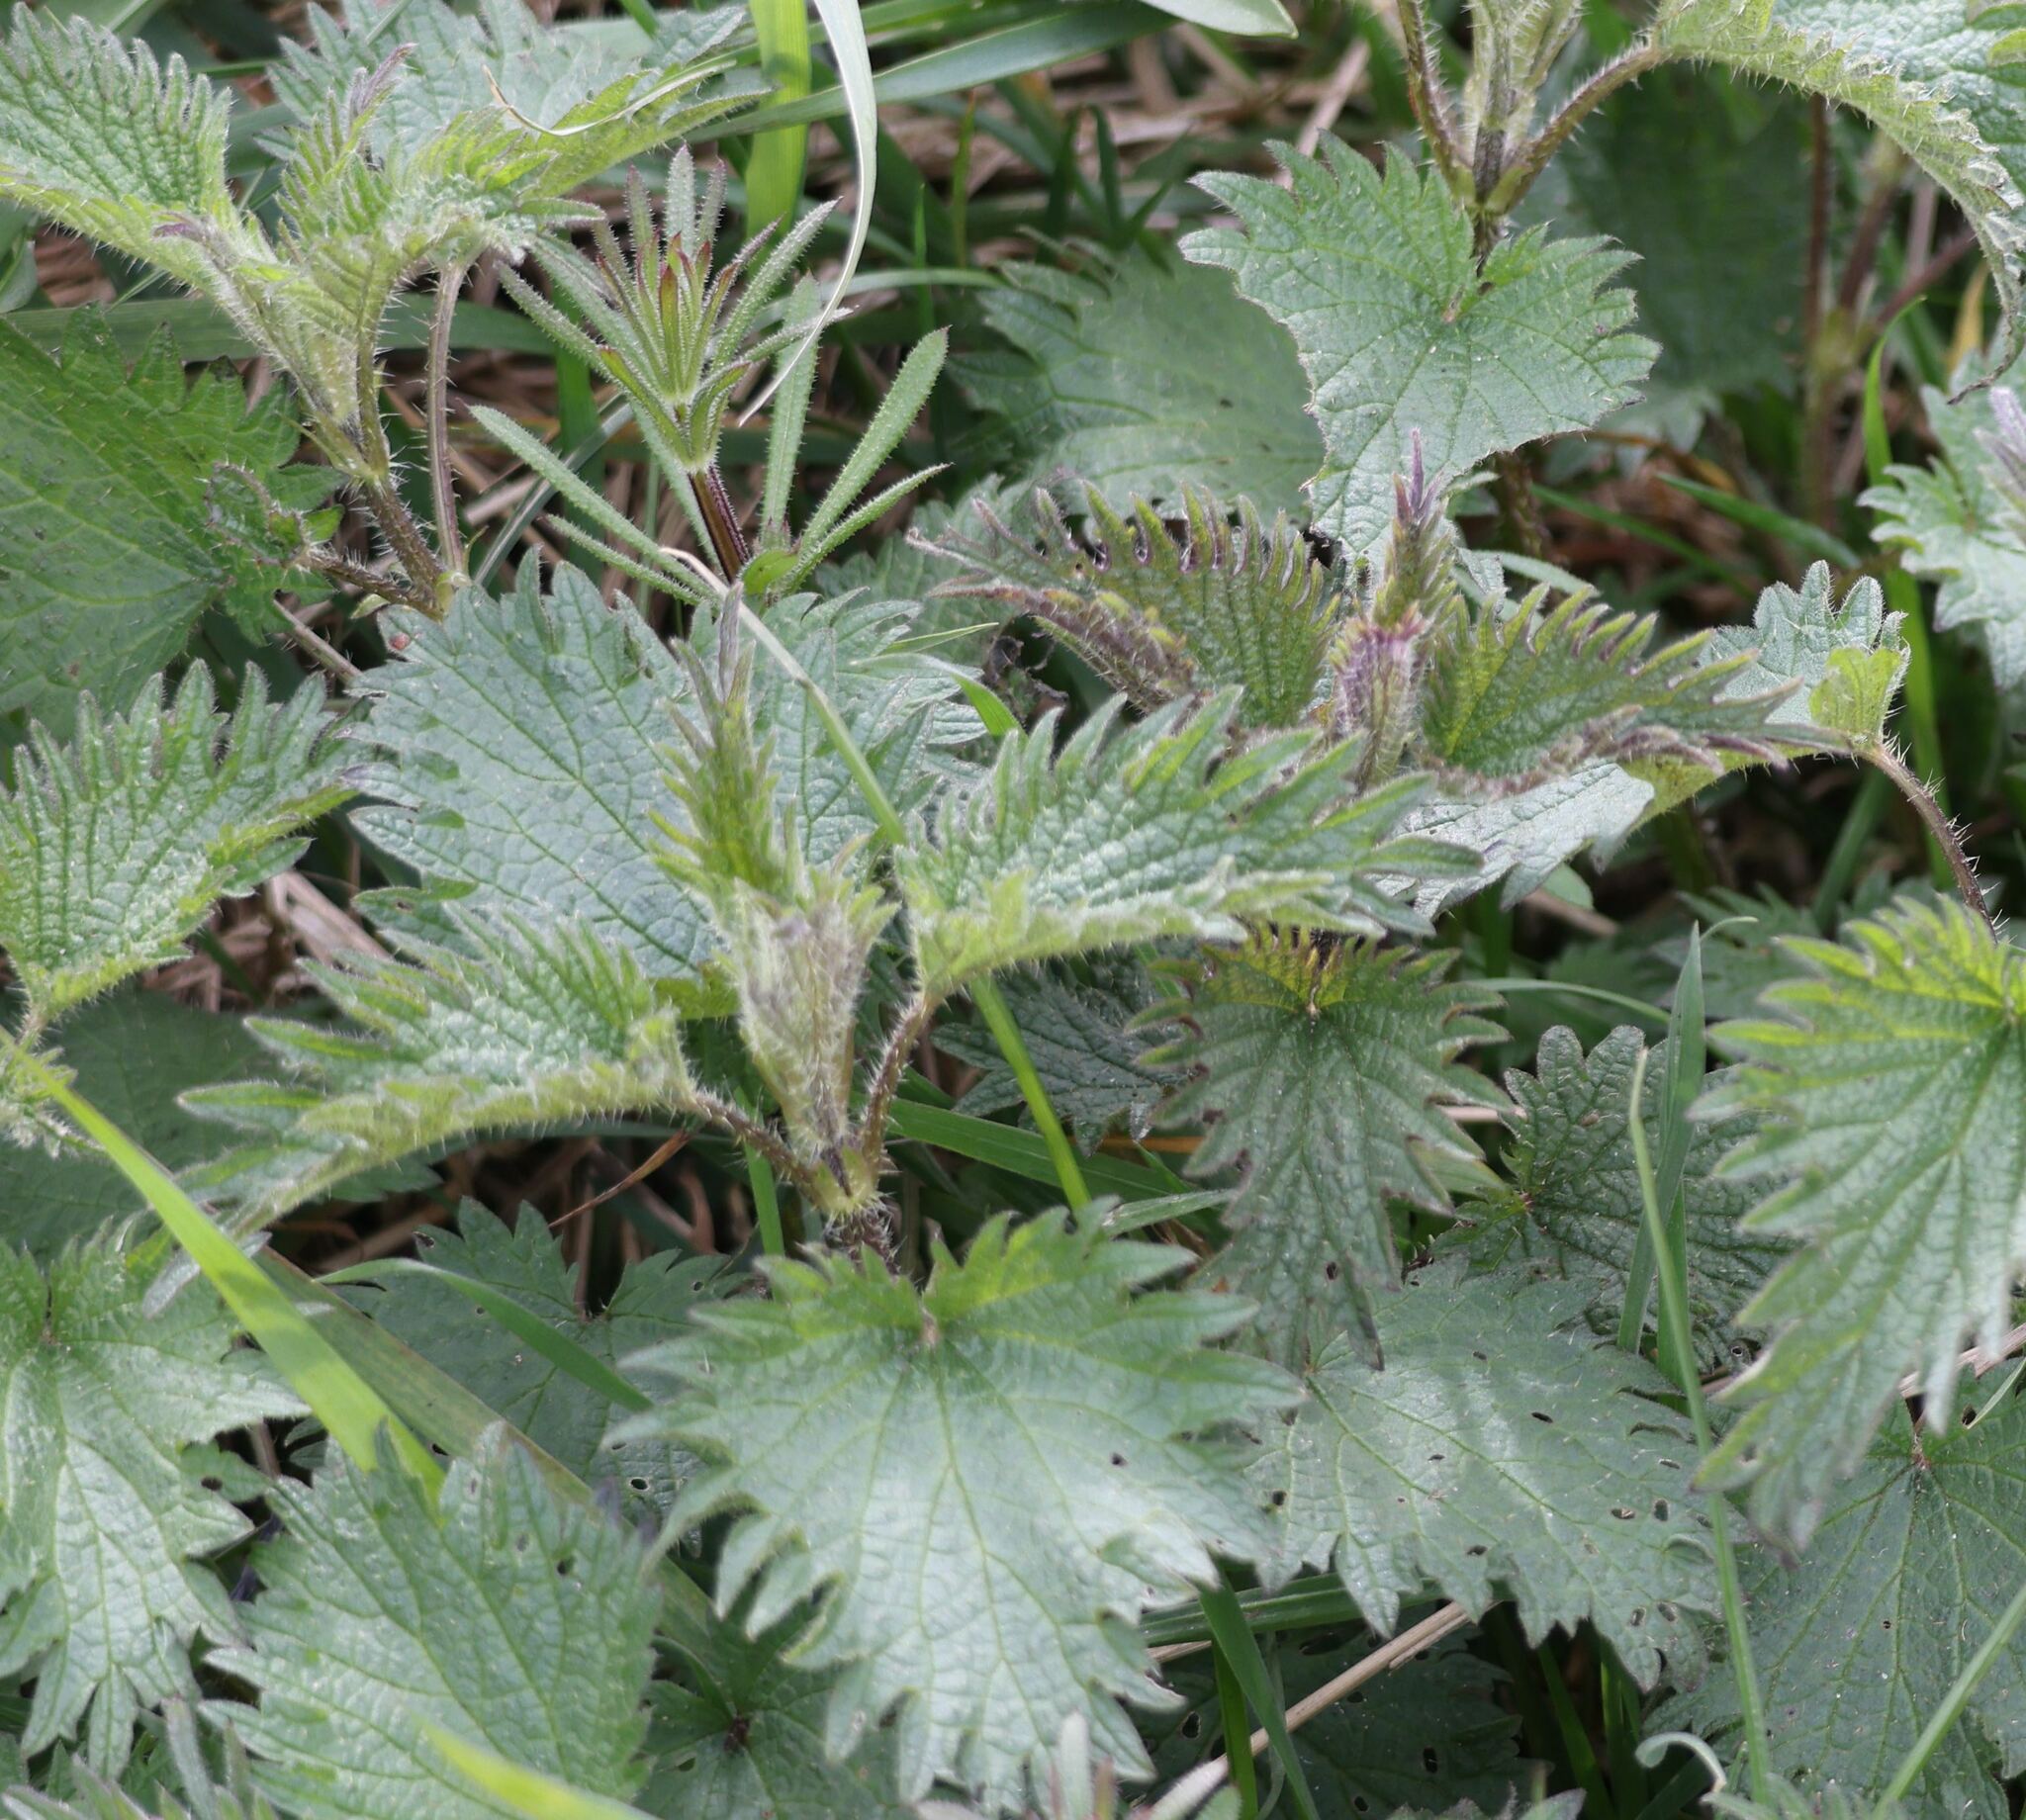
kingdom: Plantae
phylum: Tracheophyta
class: Magnoliopsida
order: Rosales
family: Urticaceae
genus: Urtica
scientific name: Urtica dioica
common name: Common nettle
